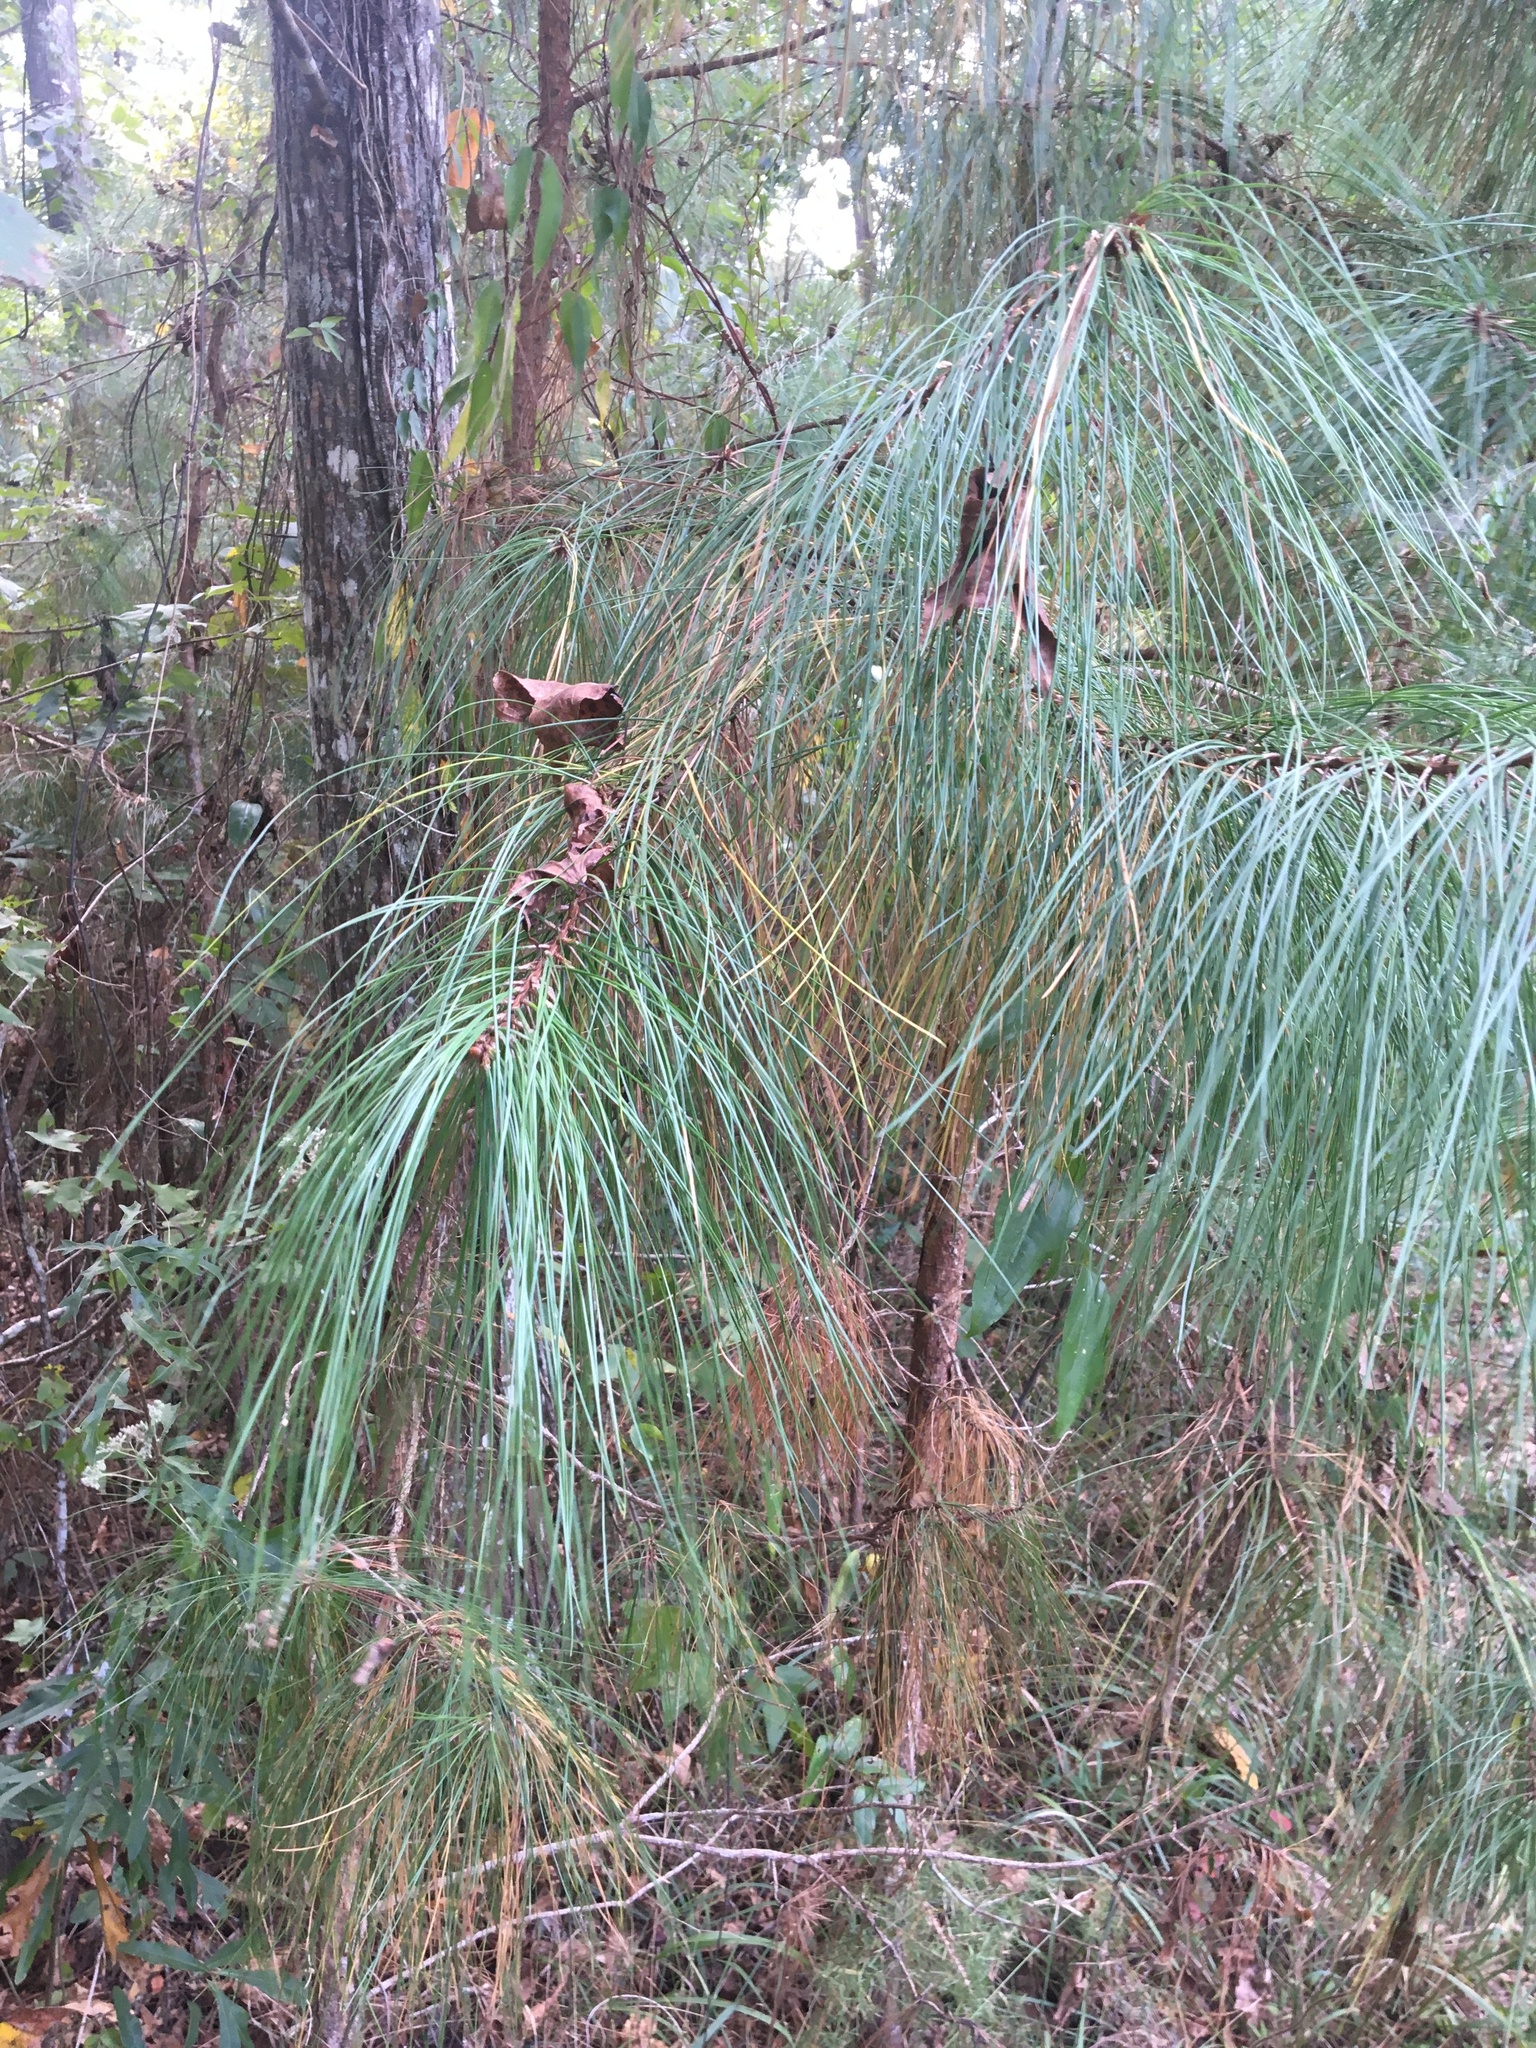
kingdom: Plantae
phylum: Tracheophyta
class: Pinopsida
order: Pinales
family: Pinaceae
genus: Pinus
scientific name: Pinus palustris
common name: Longleaf pine
